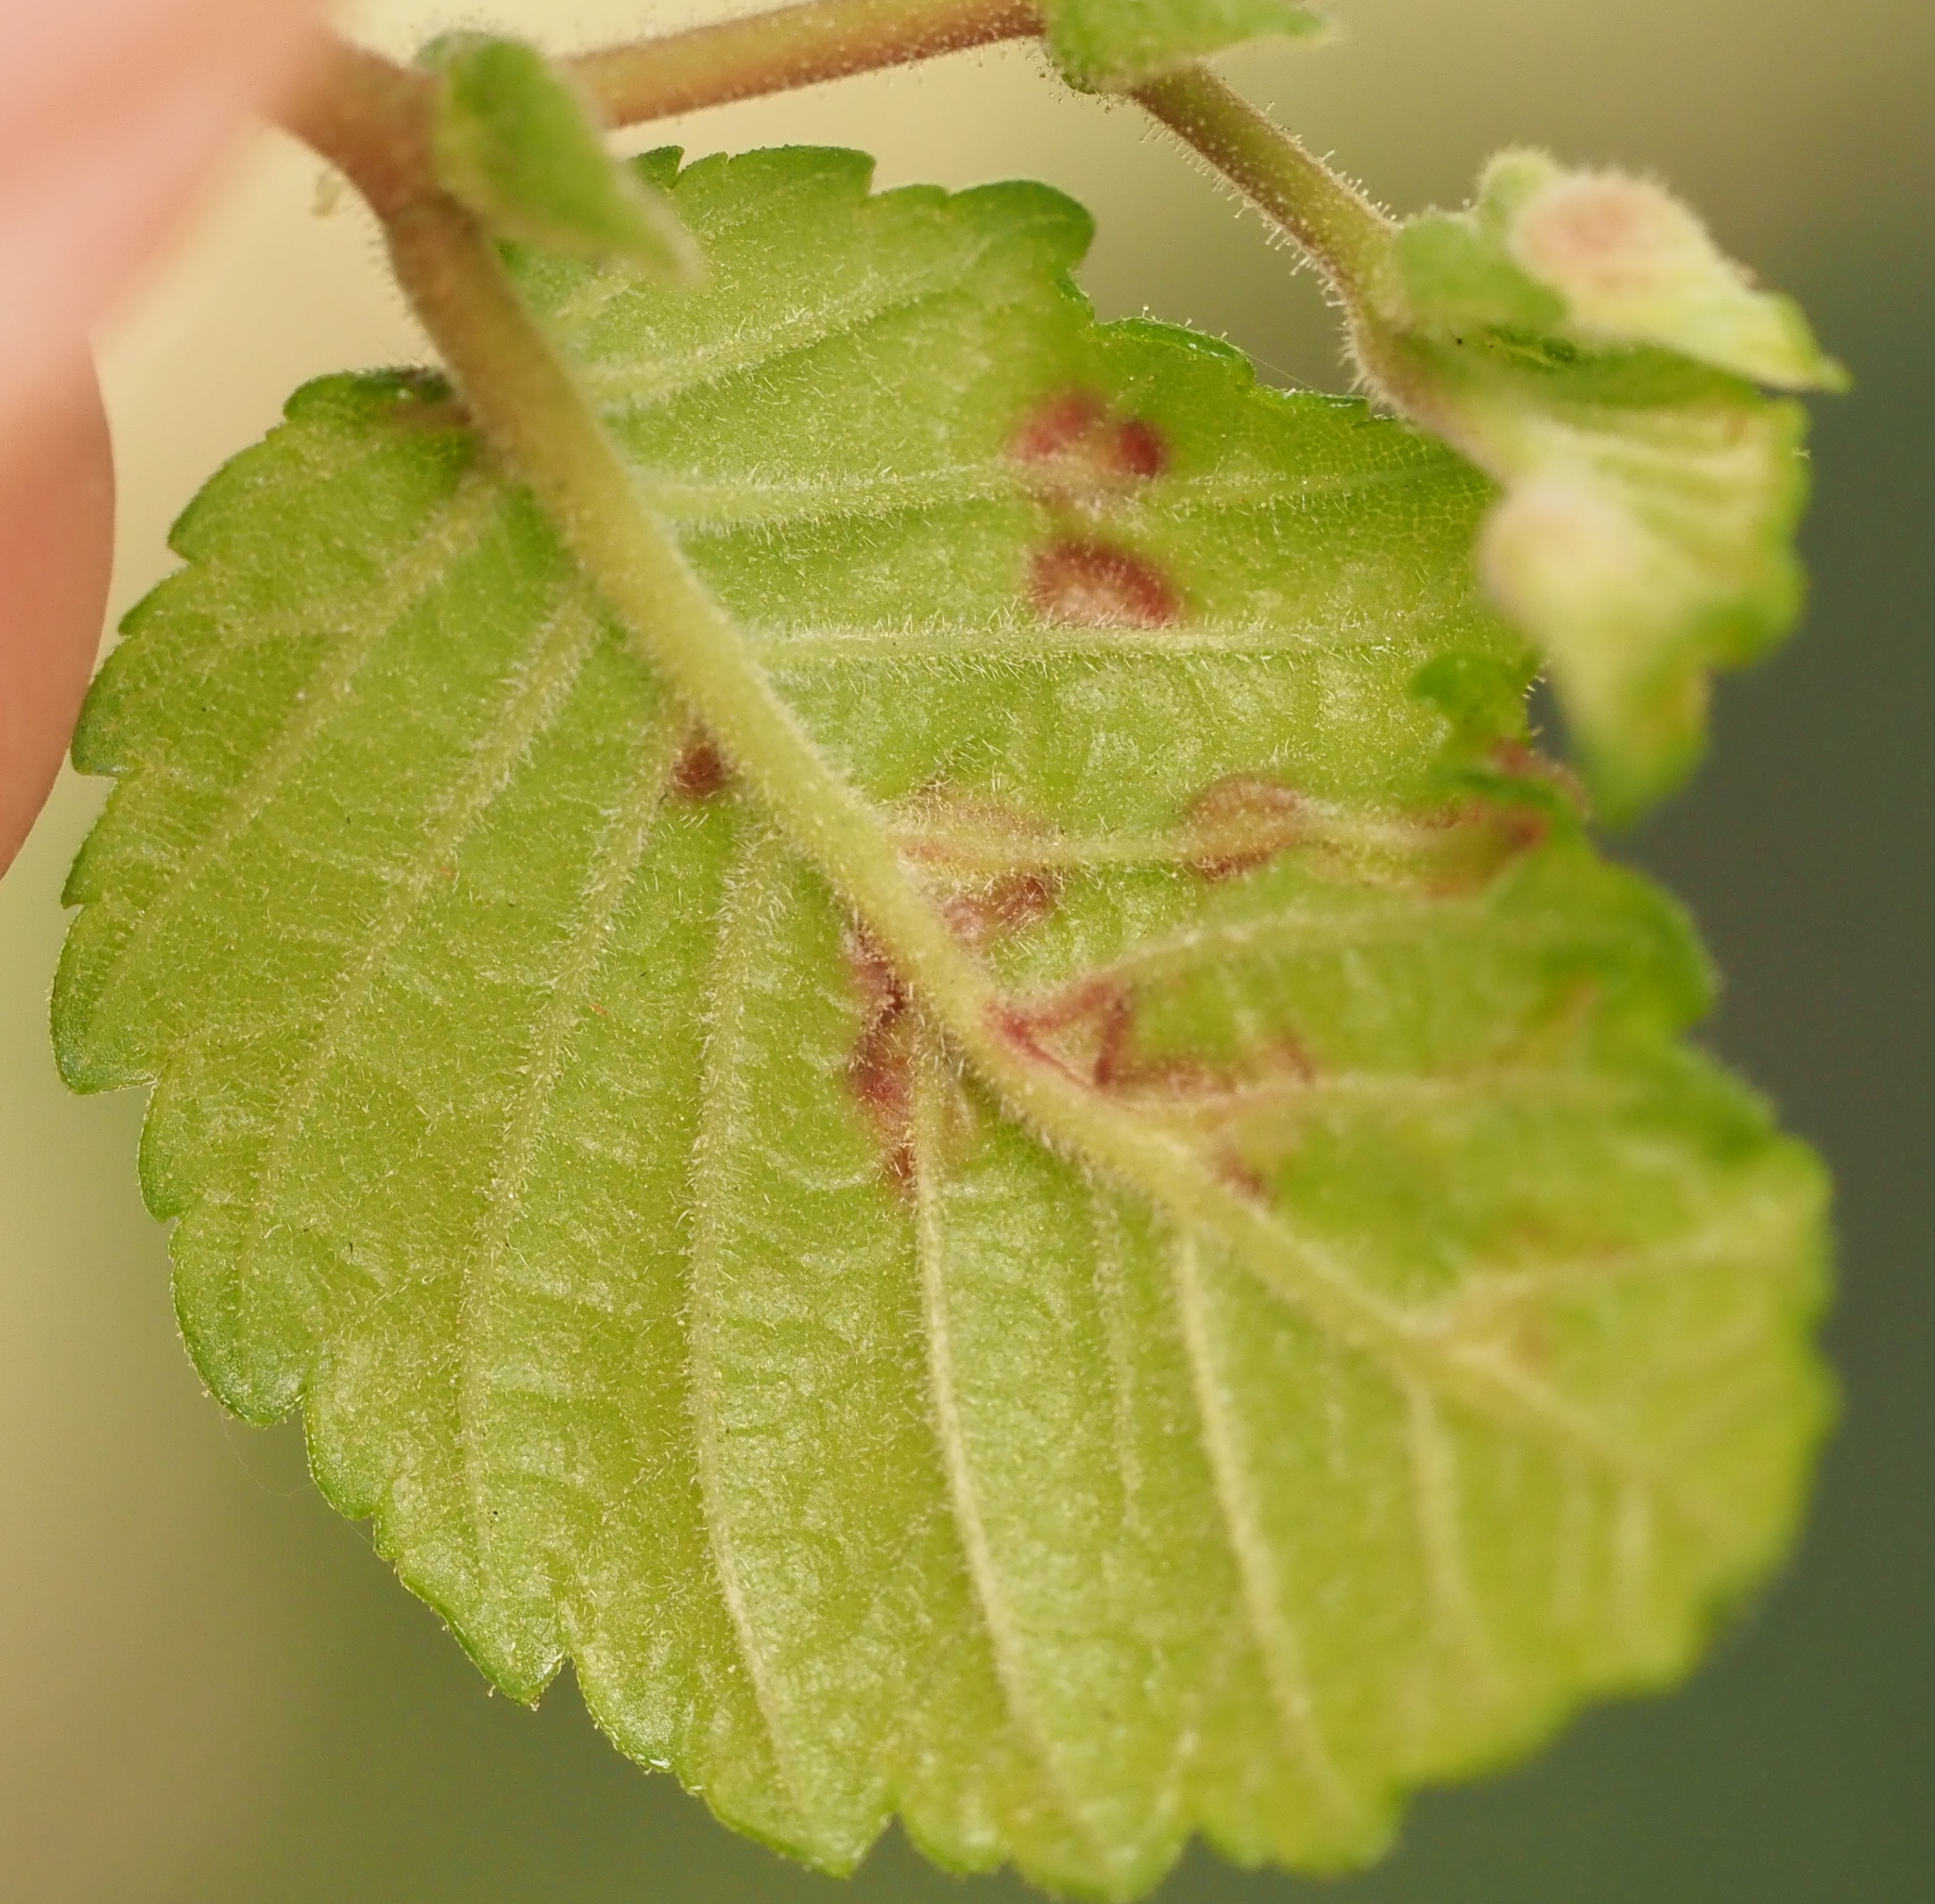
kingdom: Animalia
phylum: Arthropoda
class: Insecta
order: Diptera
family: Cecidomyiidae
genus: Janetiella
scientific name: Janetiella ulmii
